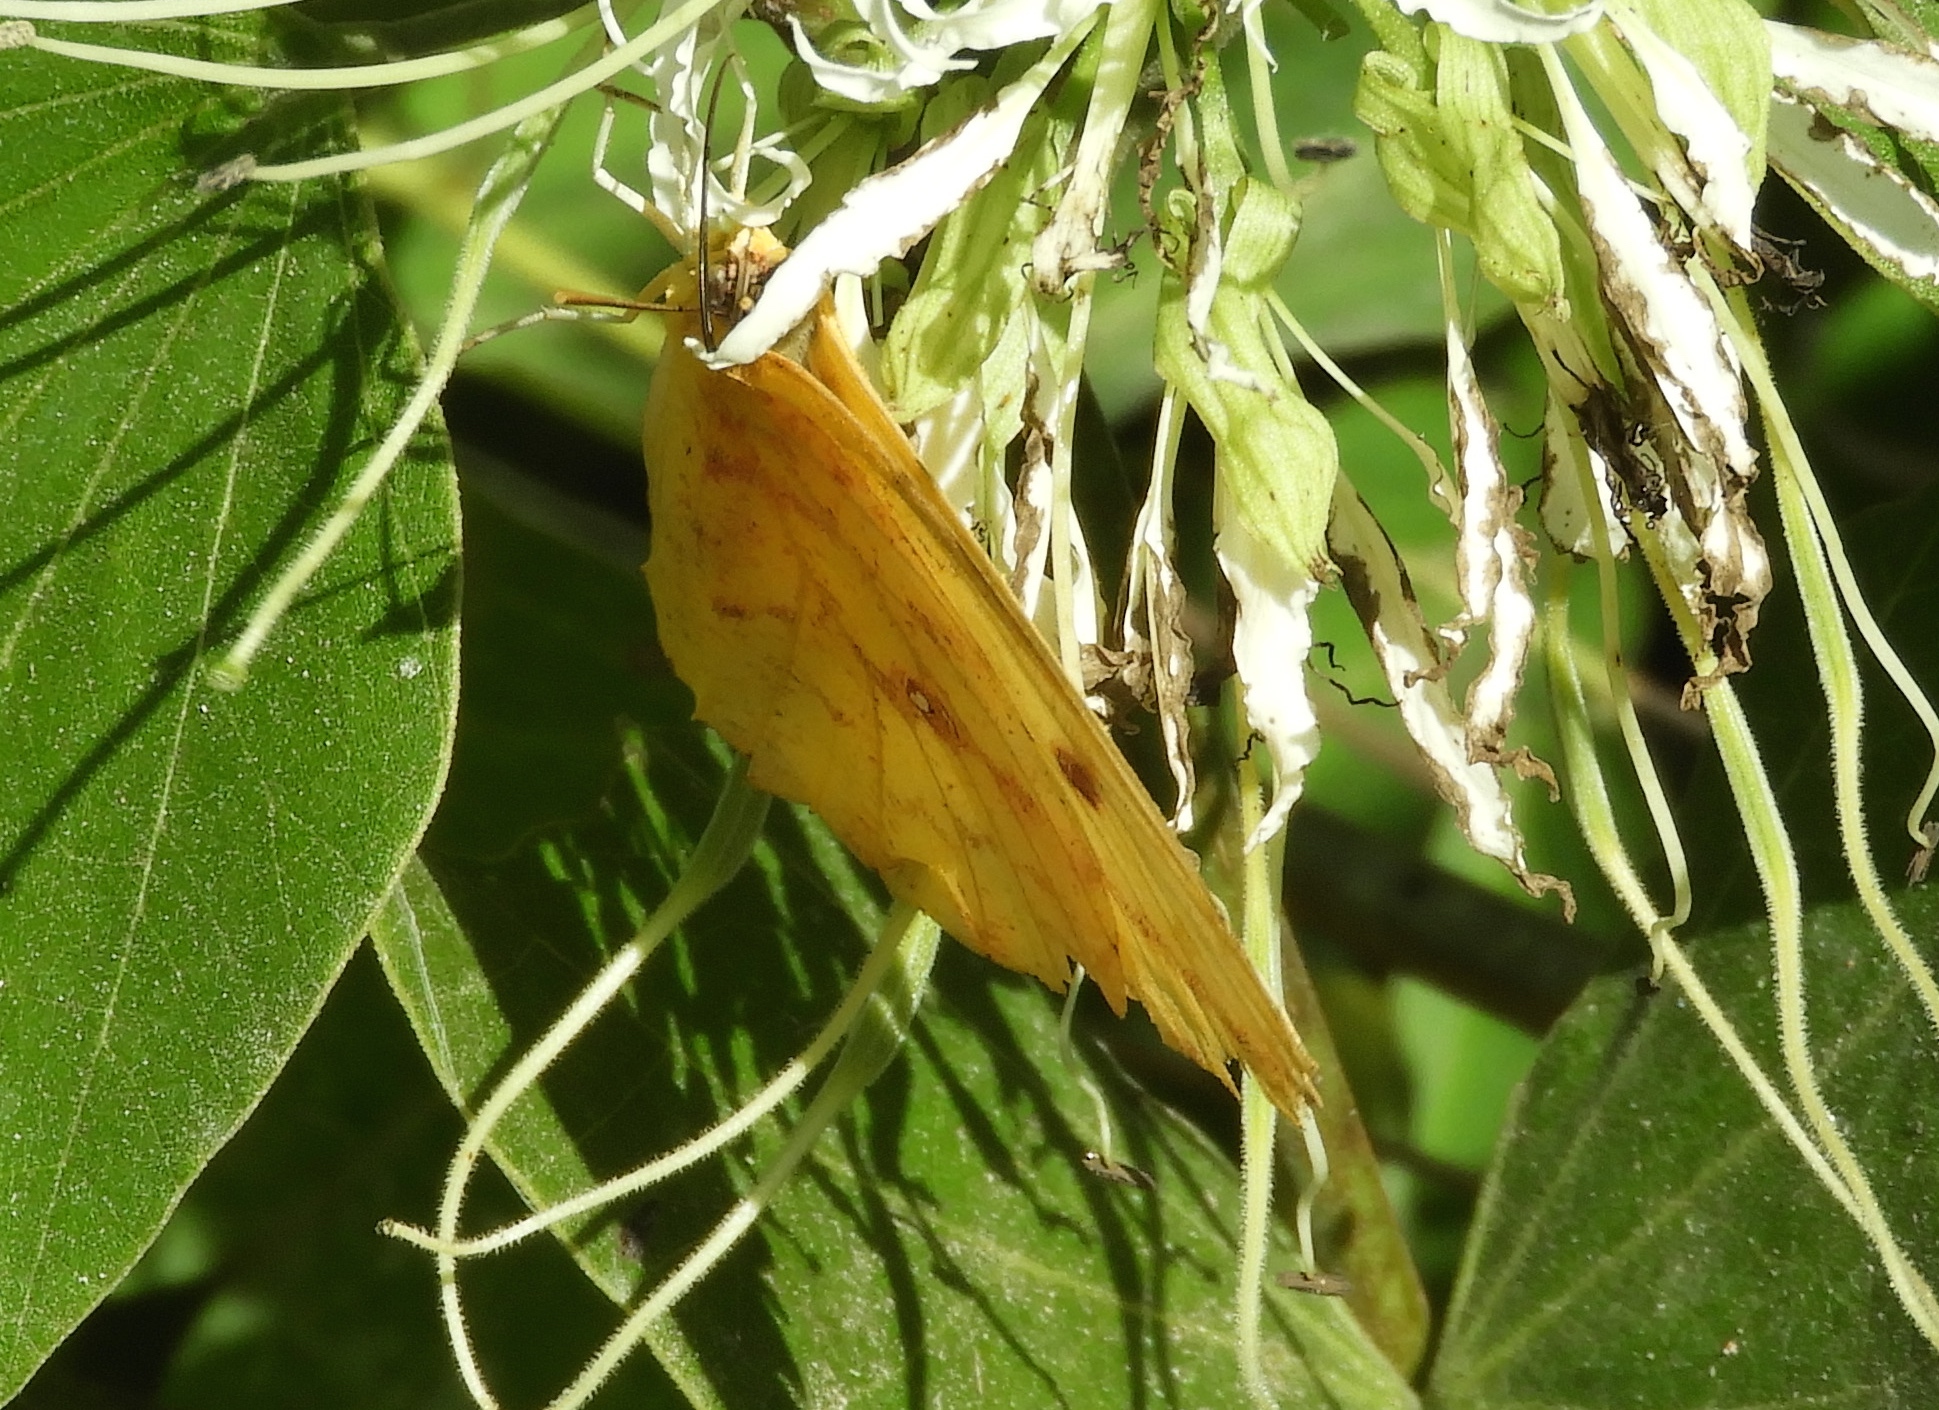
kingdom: Animalia
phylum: Arthropoda
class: Insecta
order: Lepidoptera
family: Pieridae
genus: Phoebis
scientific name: Phoebis agarithe
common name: Large orange sulphur
